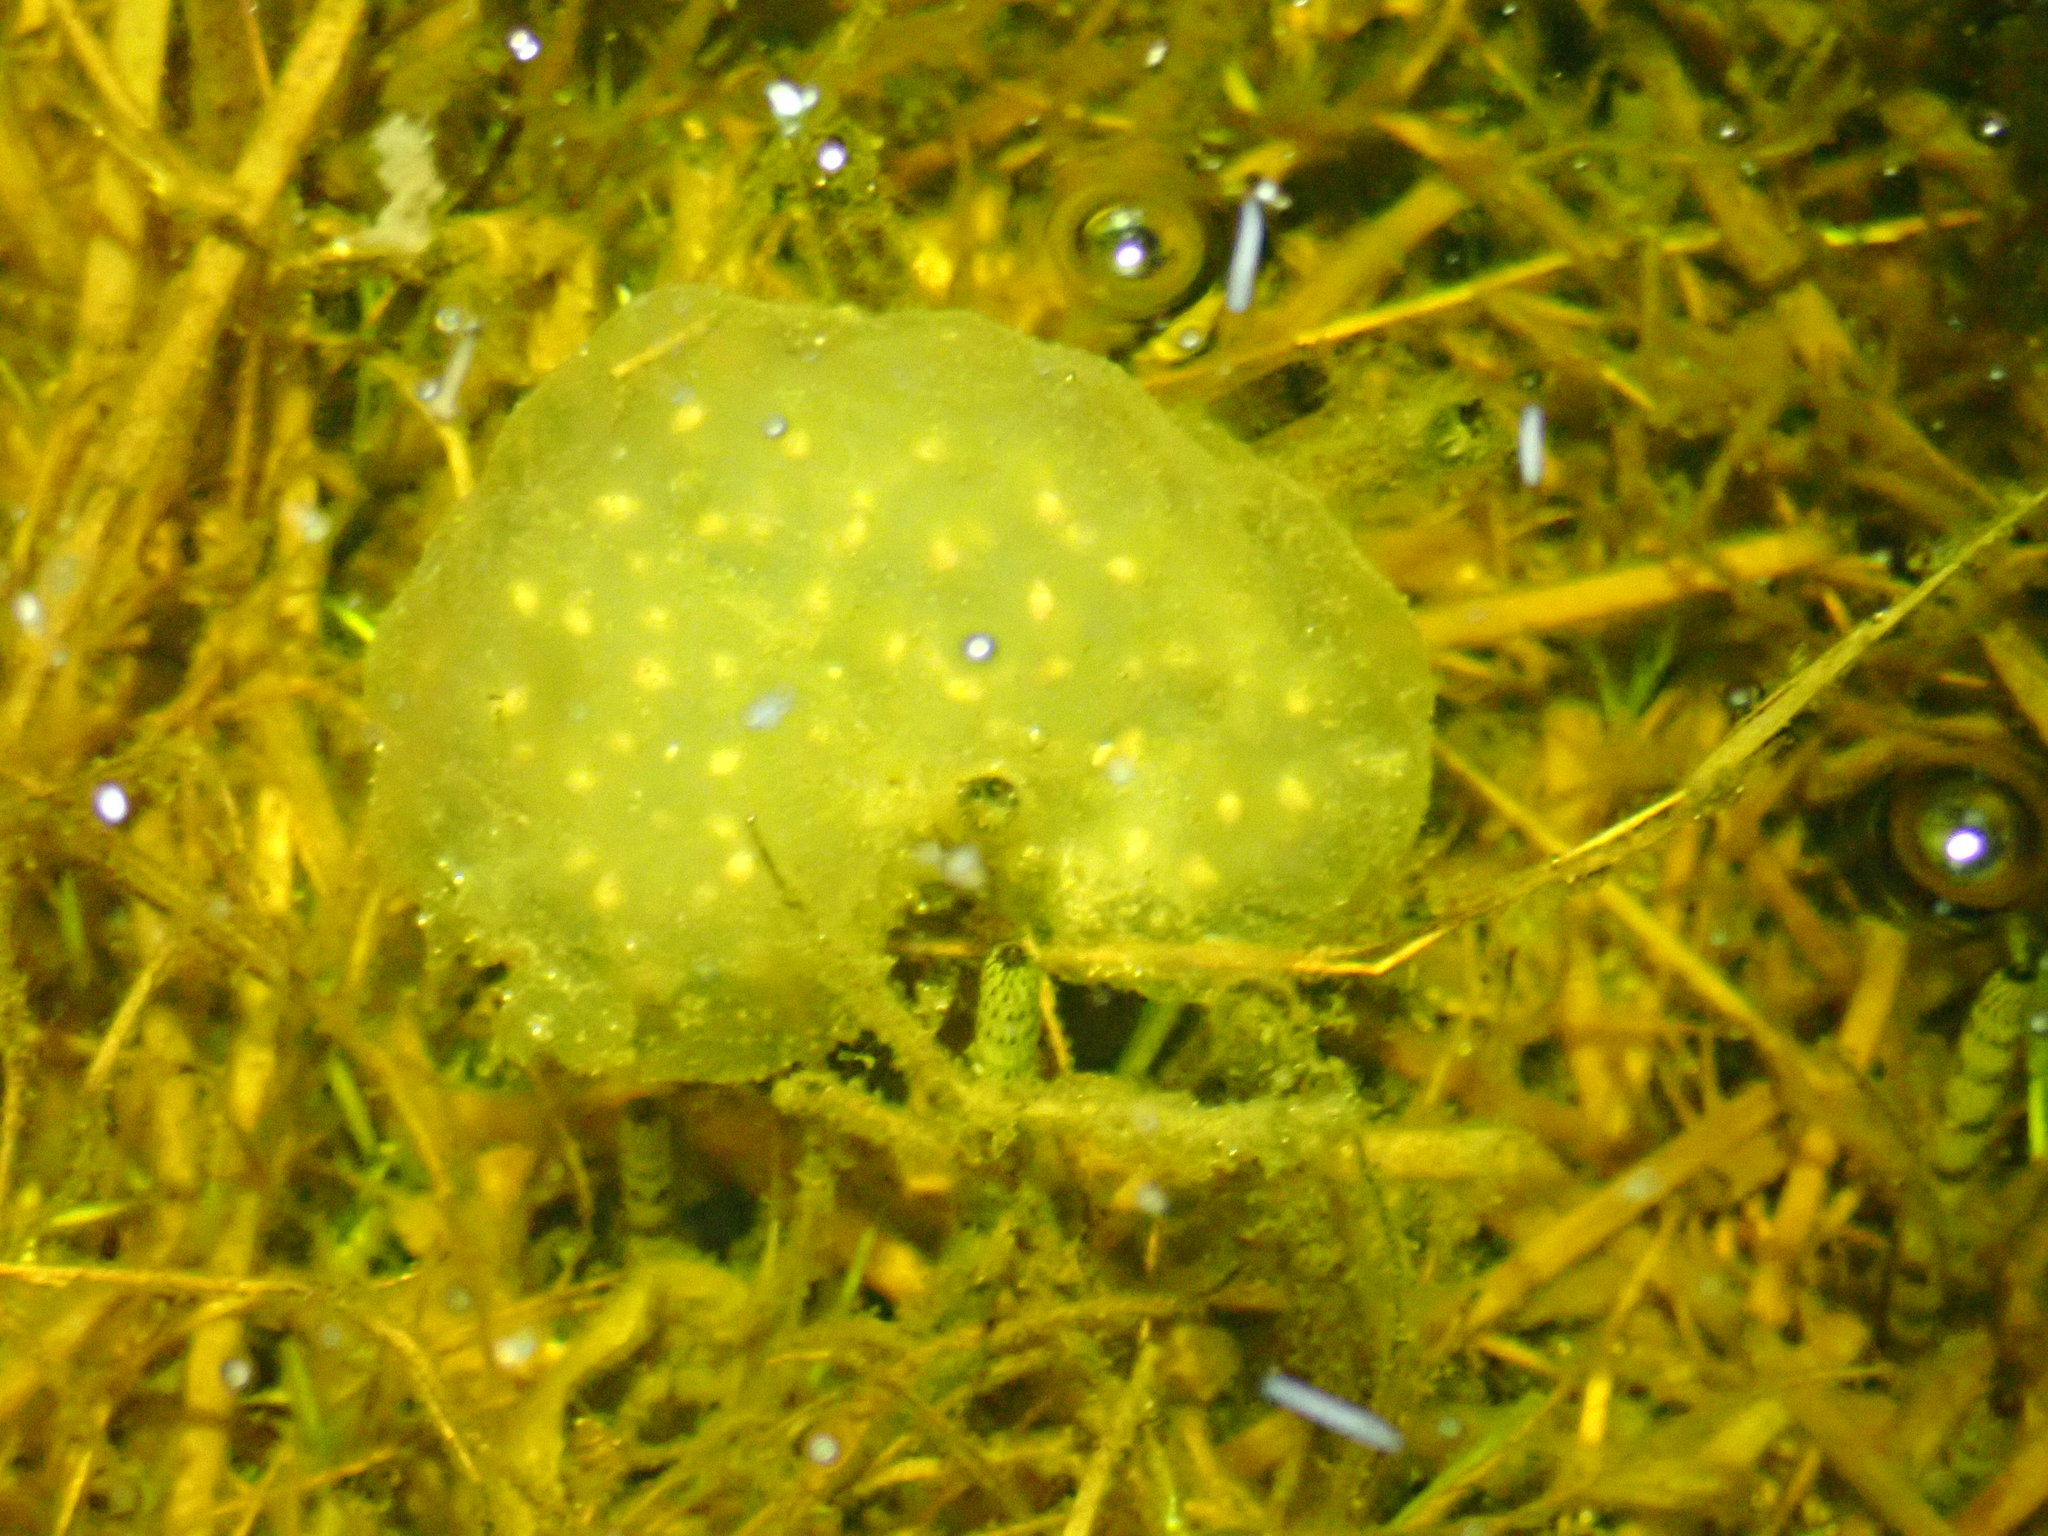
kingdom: Animalia
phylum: Chordata
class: Amphibia
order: Caudata
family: Ambystomatidae
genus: Ambystoma
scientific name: Ambystoma maculatum
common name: Spotted salamander
